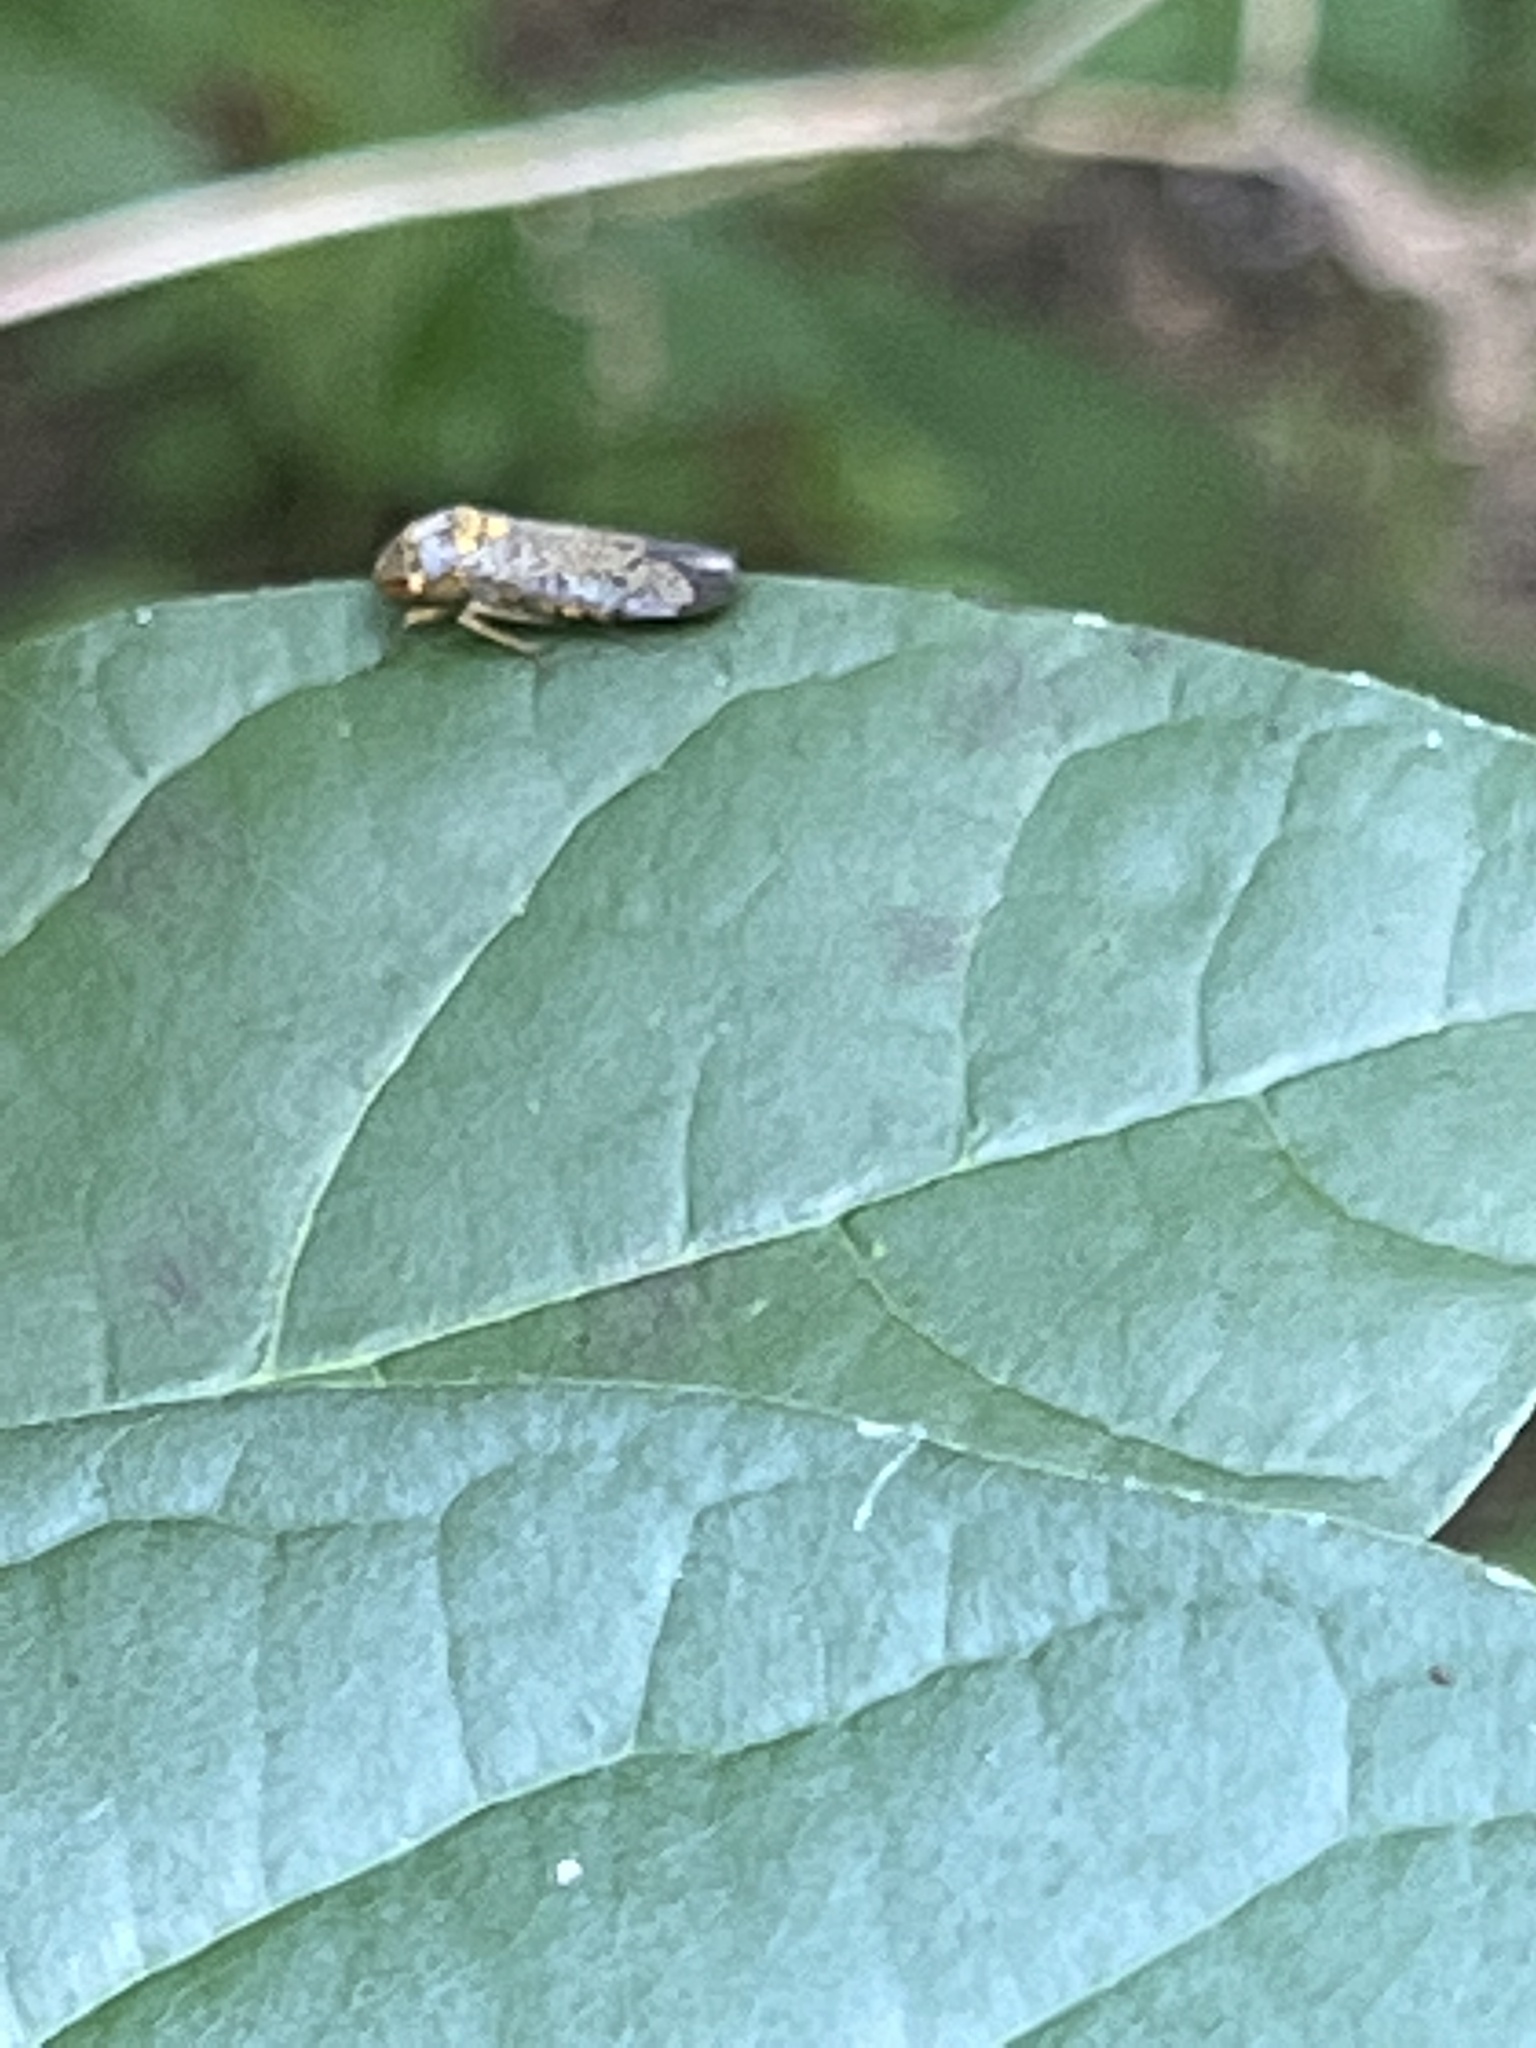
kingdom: Animalia
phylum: Arthropoda
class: Insecta
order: Hemiptera
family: Cicadellidae
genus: Oncometopia
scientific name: Oncometopia orbona
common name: Broad-headed sharpshooter
